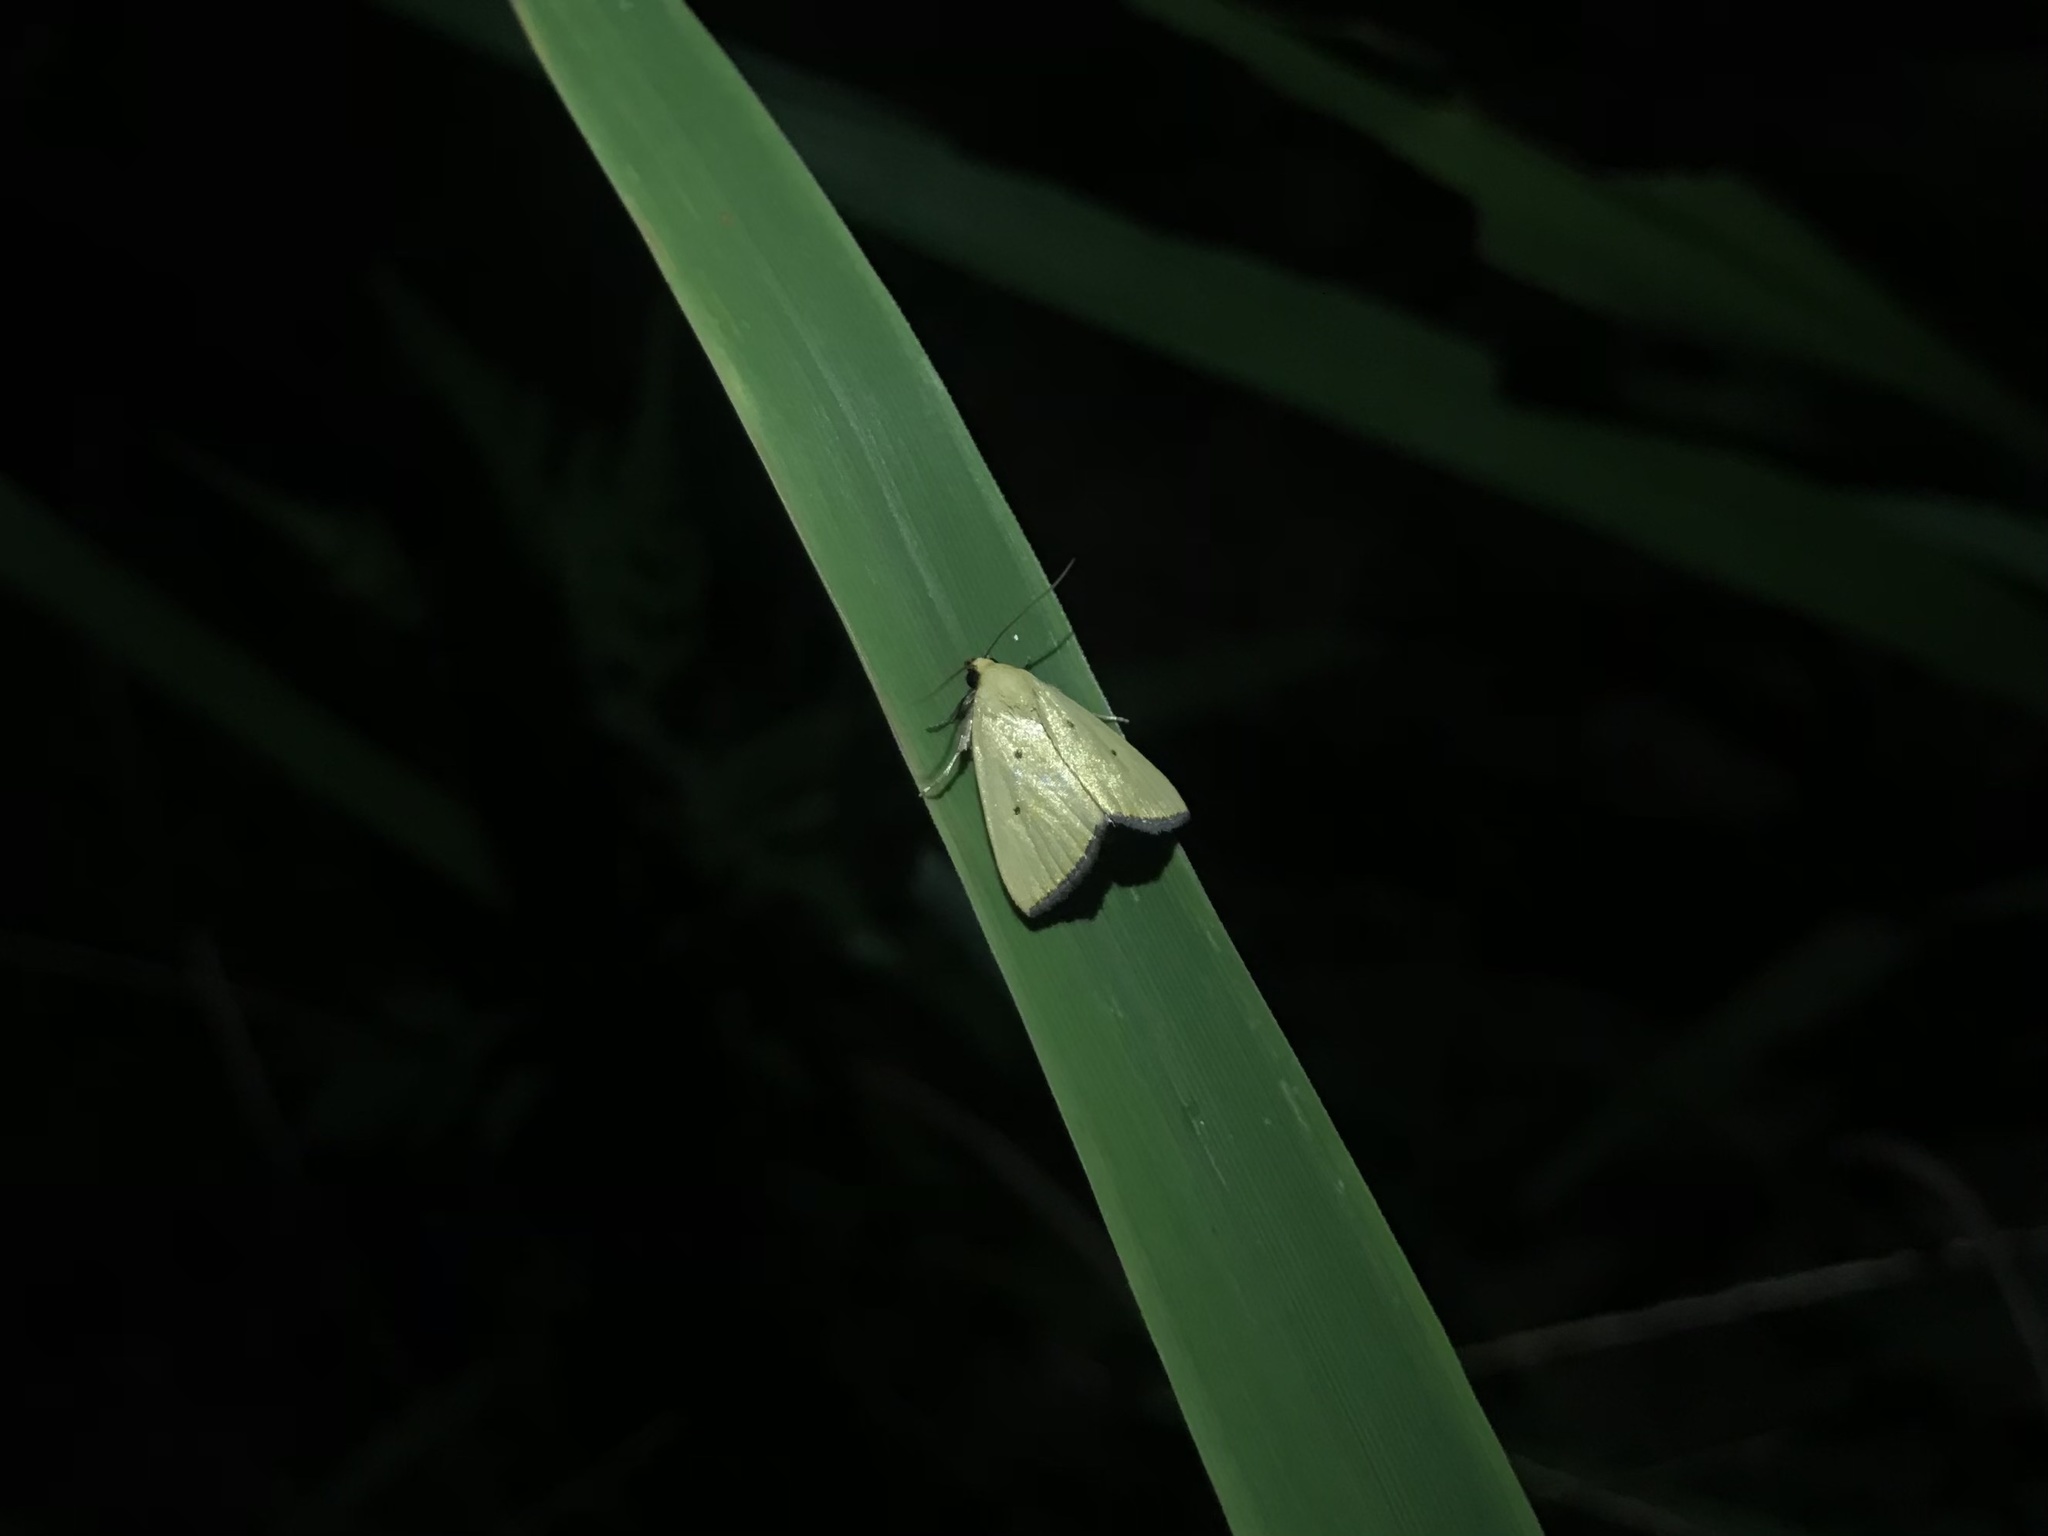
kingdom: Animalia
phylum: Arthropoda
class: Insecta
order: Lepidoptera
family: Noctuidae
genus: Marimatha
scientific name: Marimatha nigrofimbria
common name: Black-bordered lemon moth
